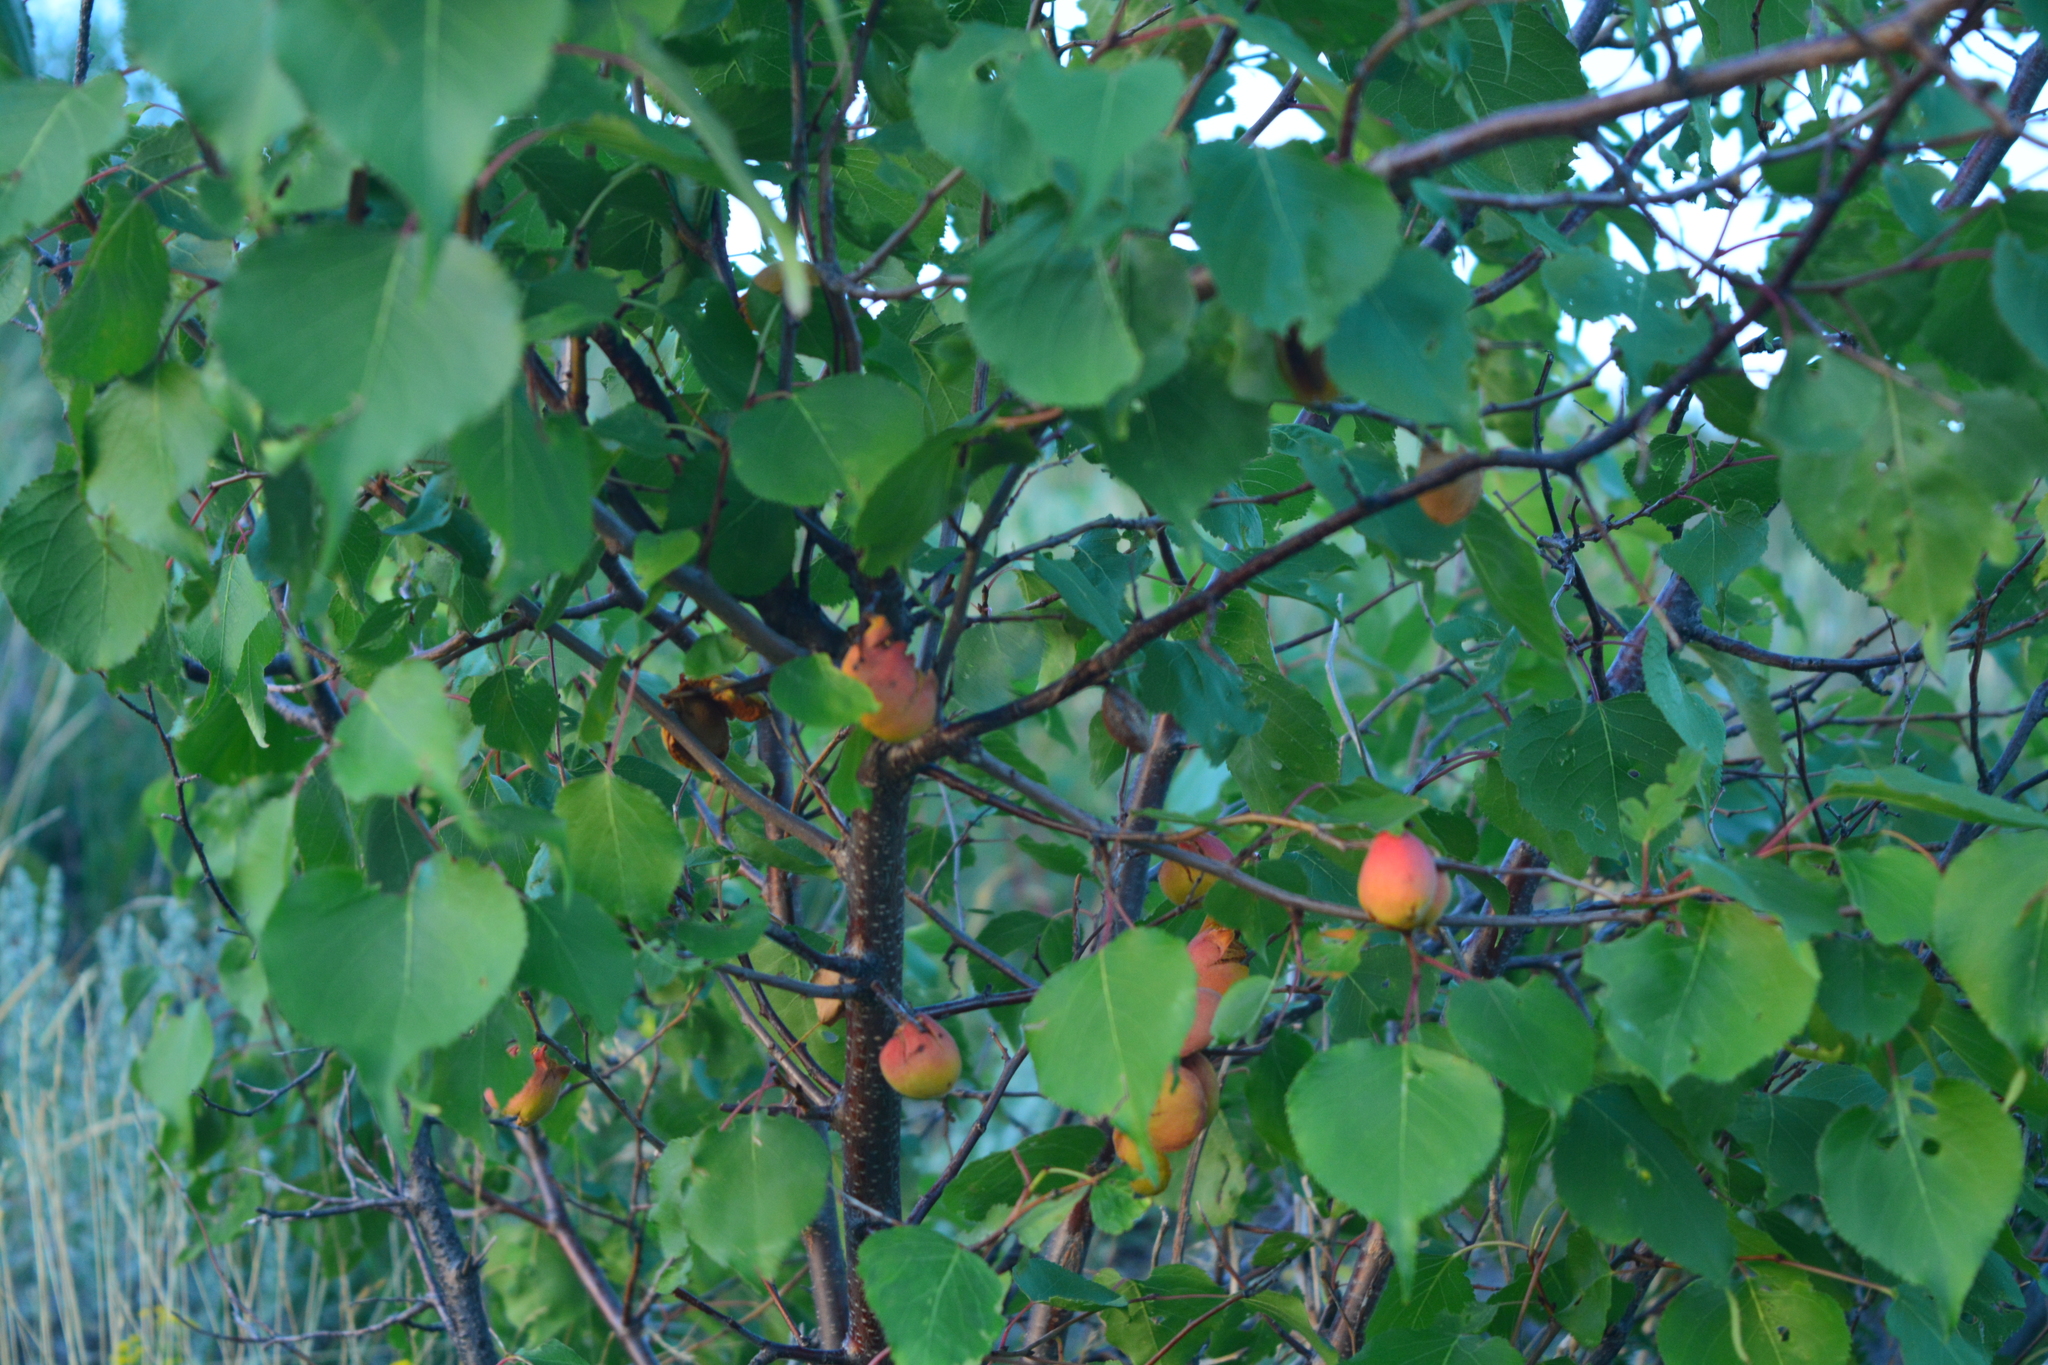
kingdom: Plantae
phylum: Tracheophyta
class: Magnoliopsida
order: Rosales
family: Rosaceae
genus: Prunus
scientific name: Prunus sibirica
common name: Siberian apricot
